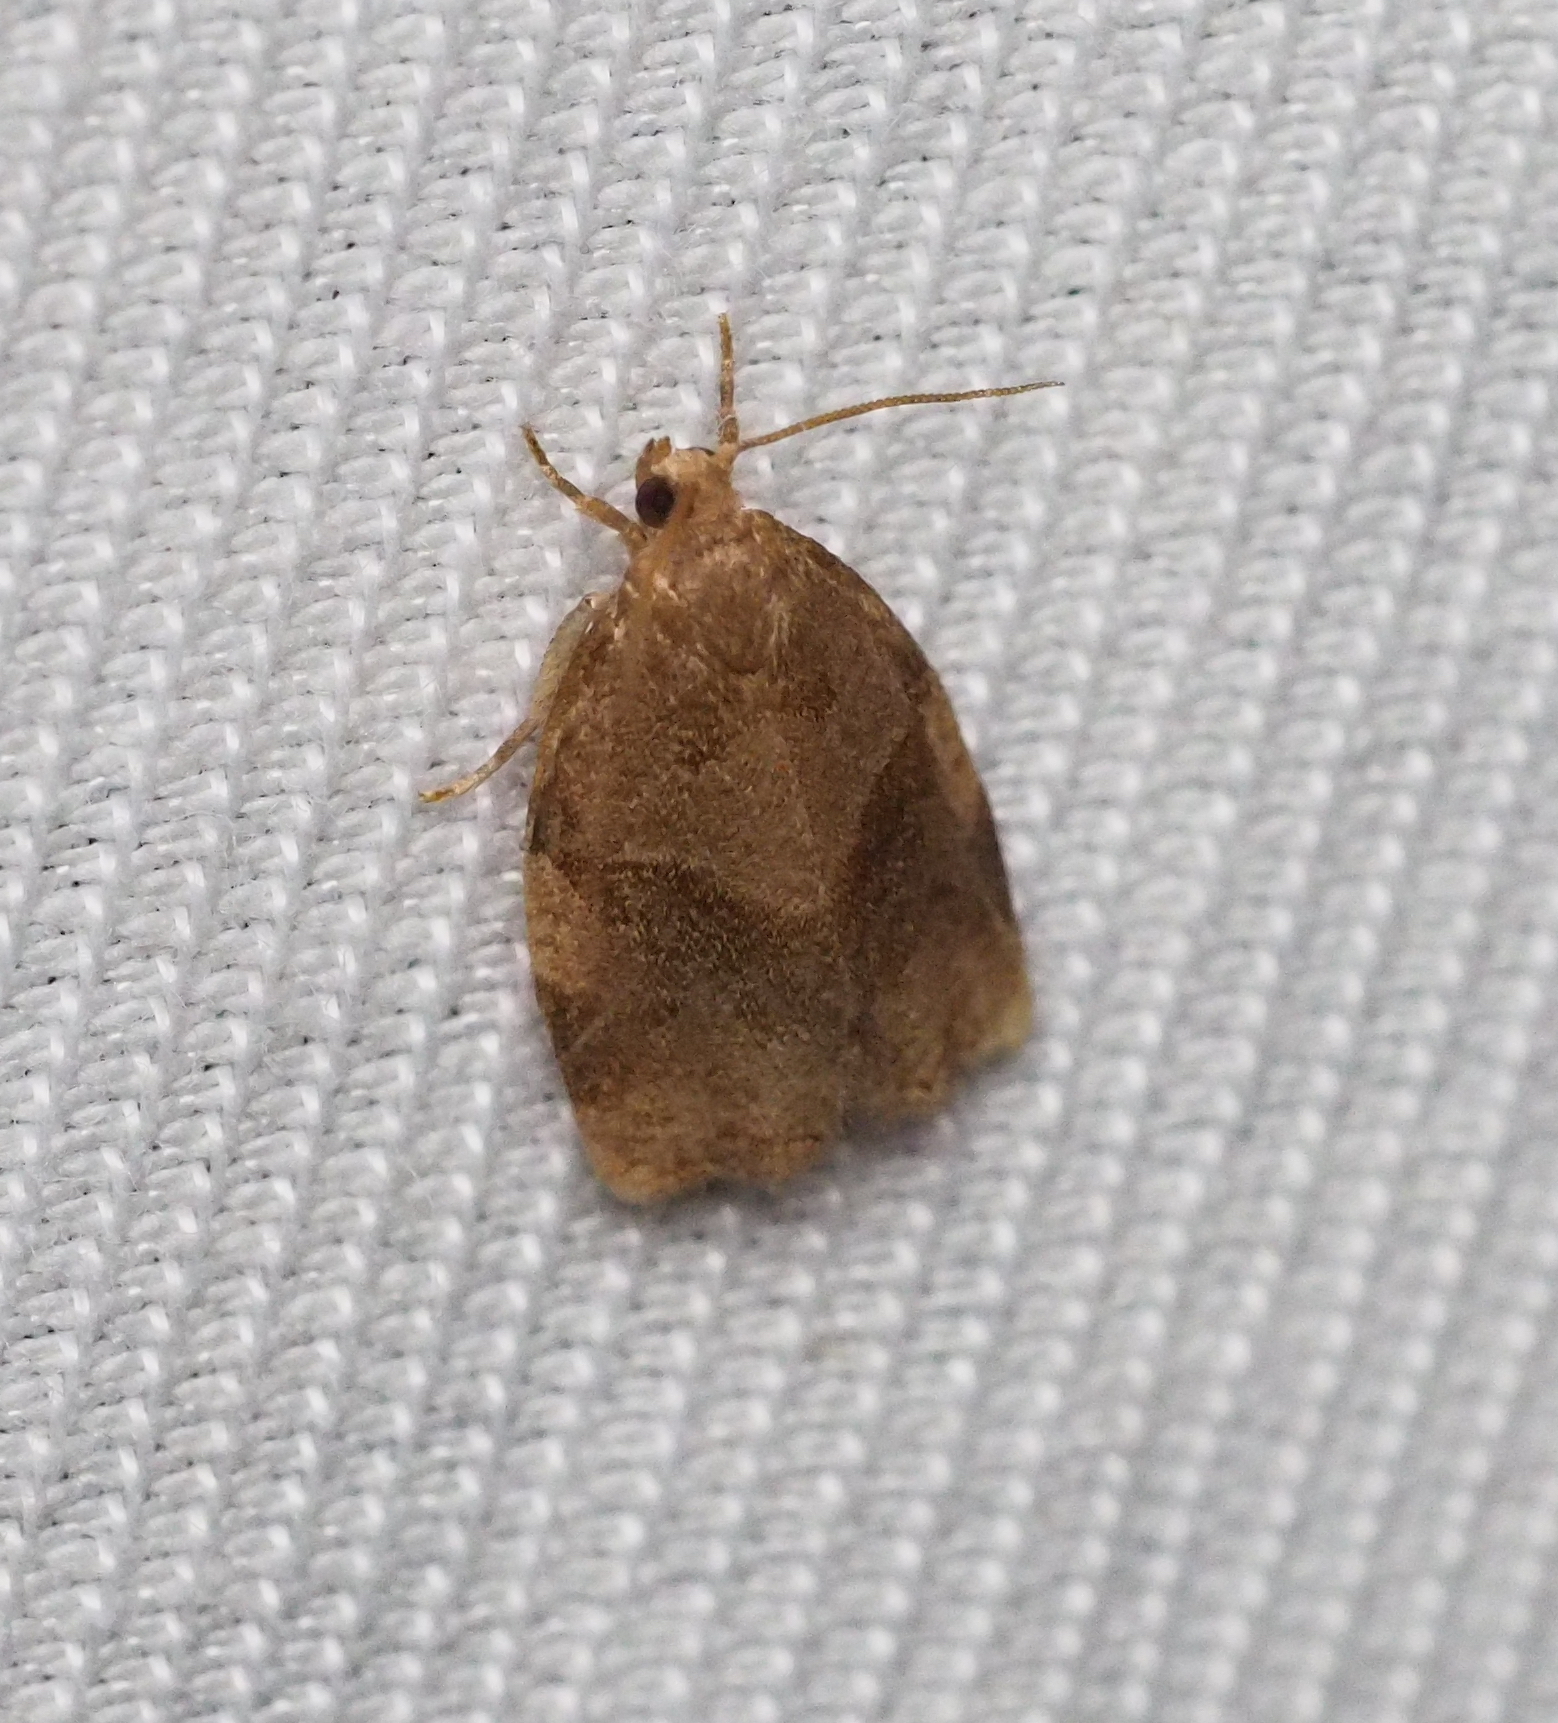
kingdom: Animalia
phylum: Arthropoda
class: Insecta
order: Lepidoptera
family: Tortricidae
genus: Archips
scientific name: Archips rosana
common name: Rose tortrix
